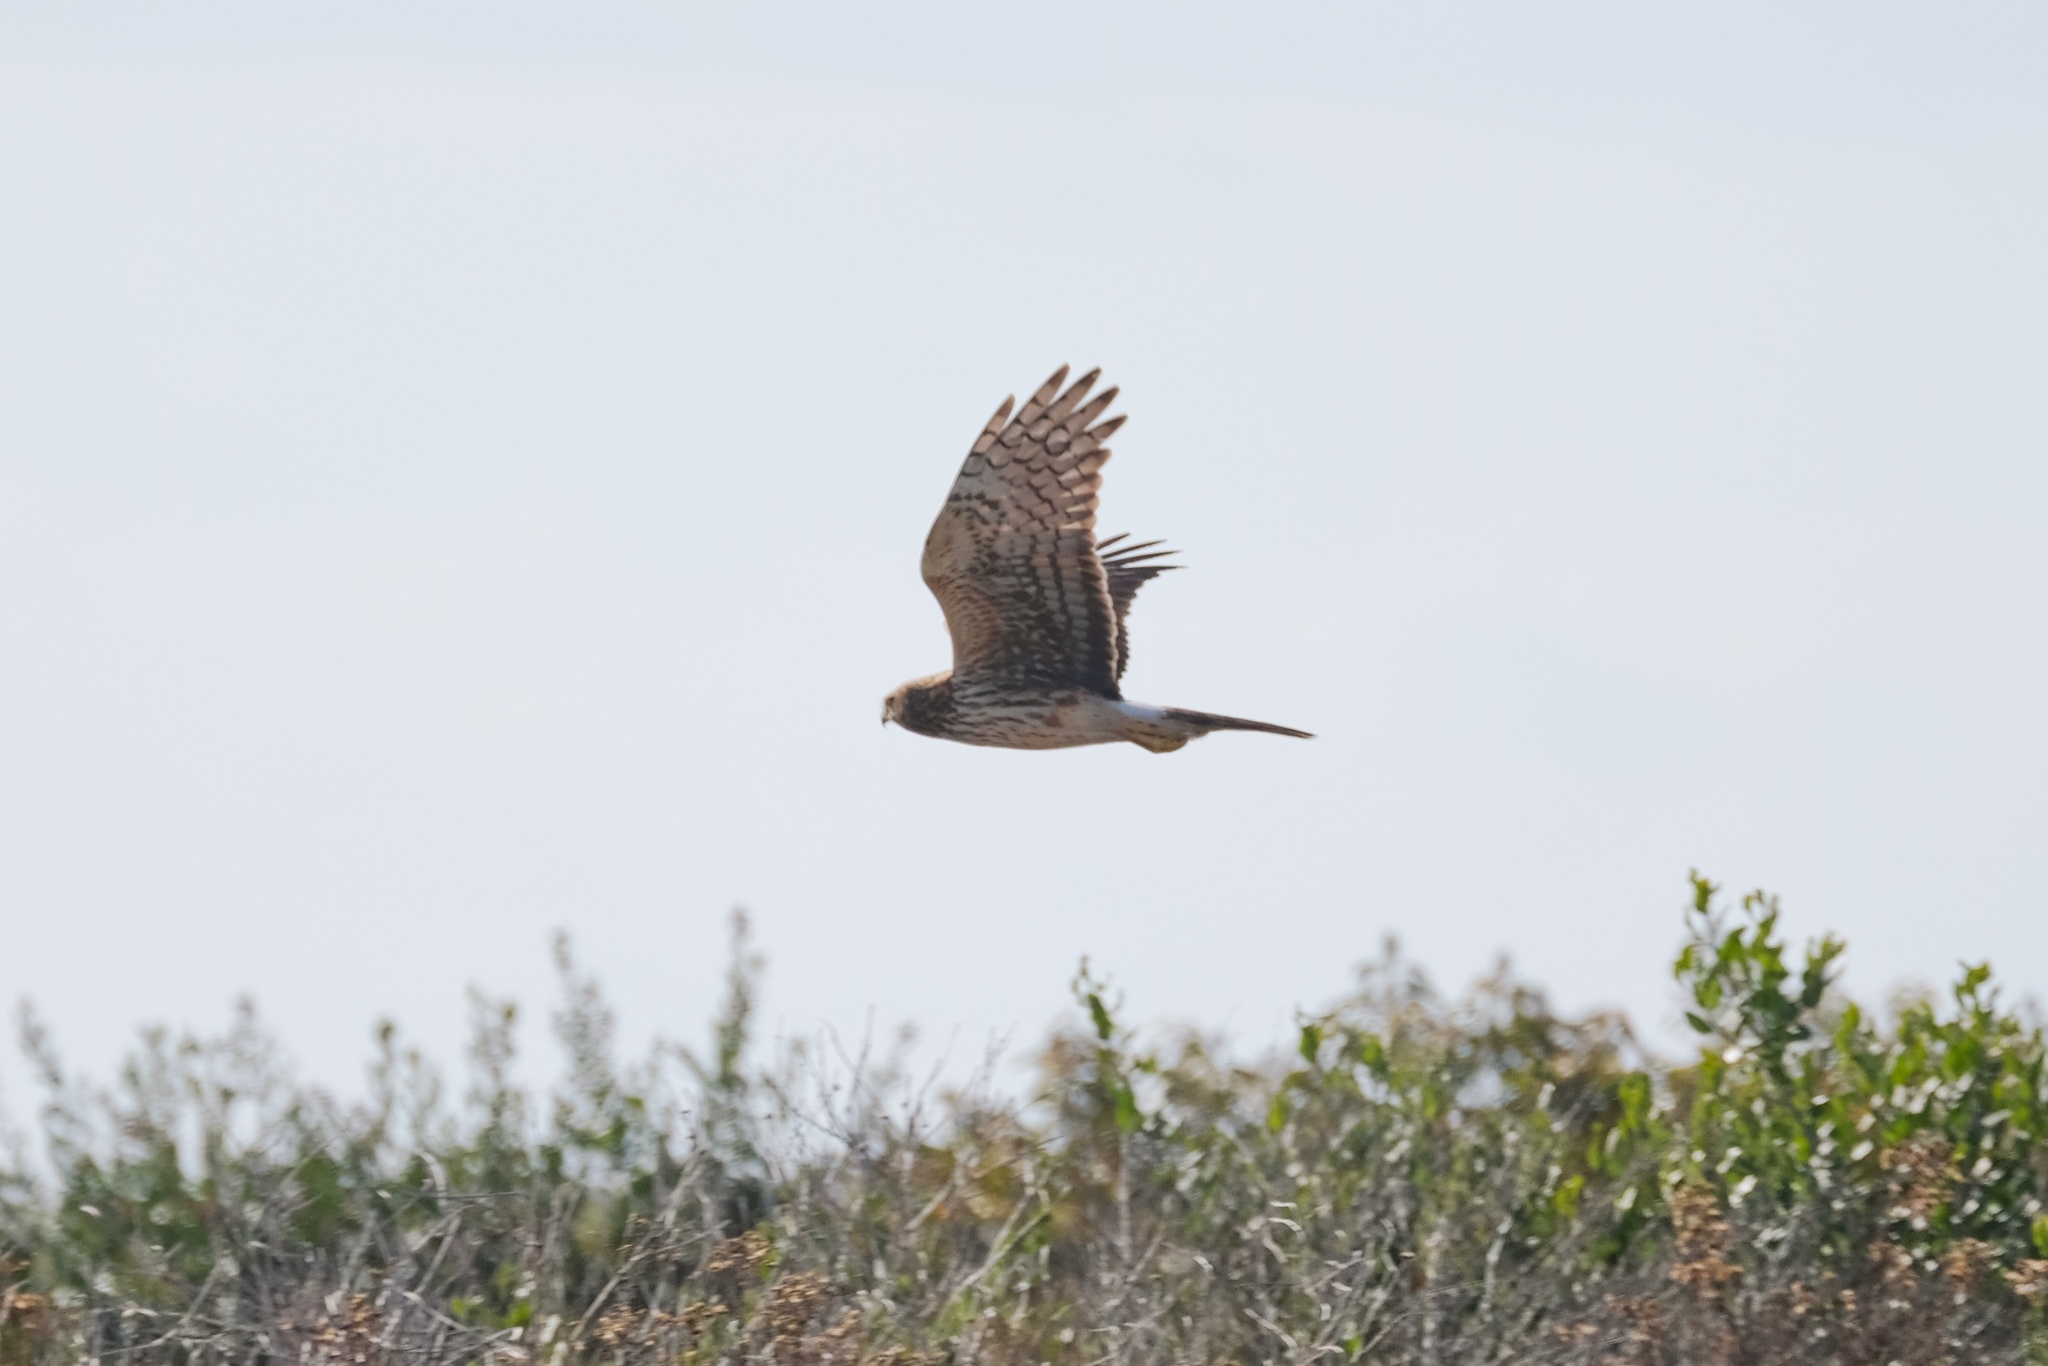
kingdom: Animalia
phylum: Chordata
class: Aves
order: Accipitriformes
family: Accipitridae
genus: Circus
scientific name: Circus cyaneus
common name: Hen harrier
